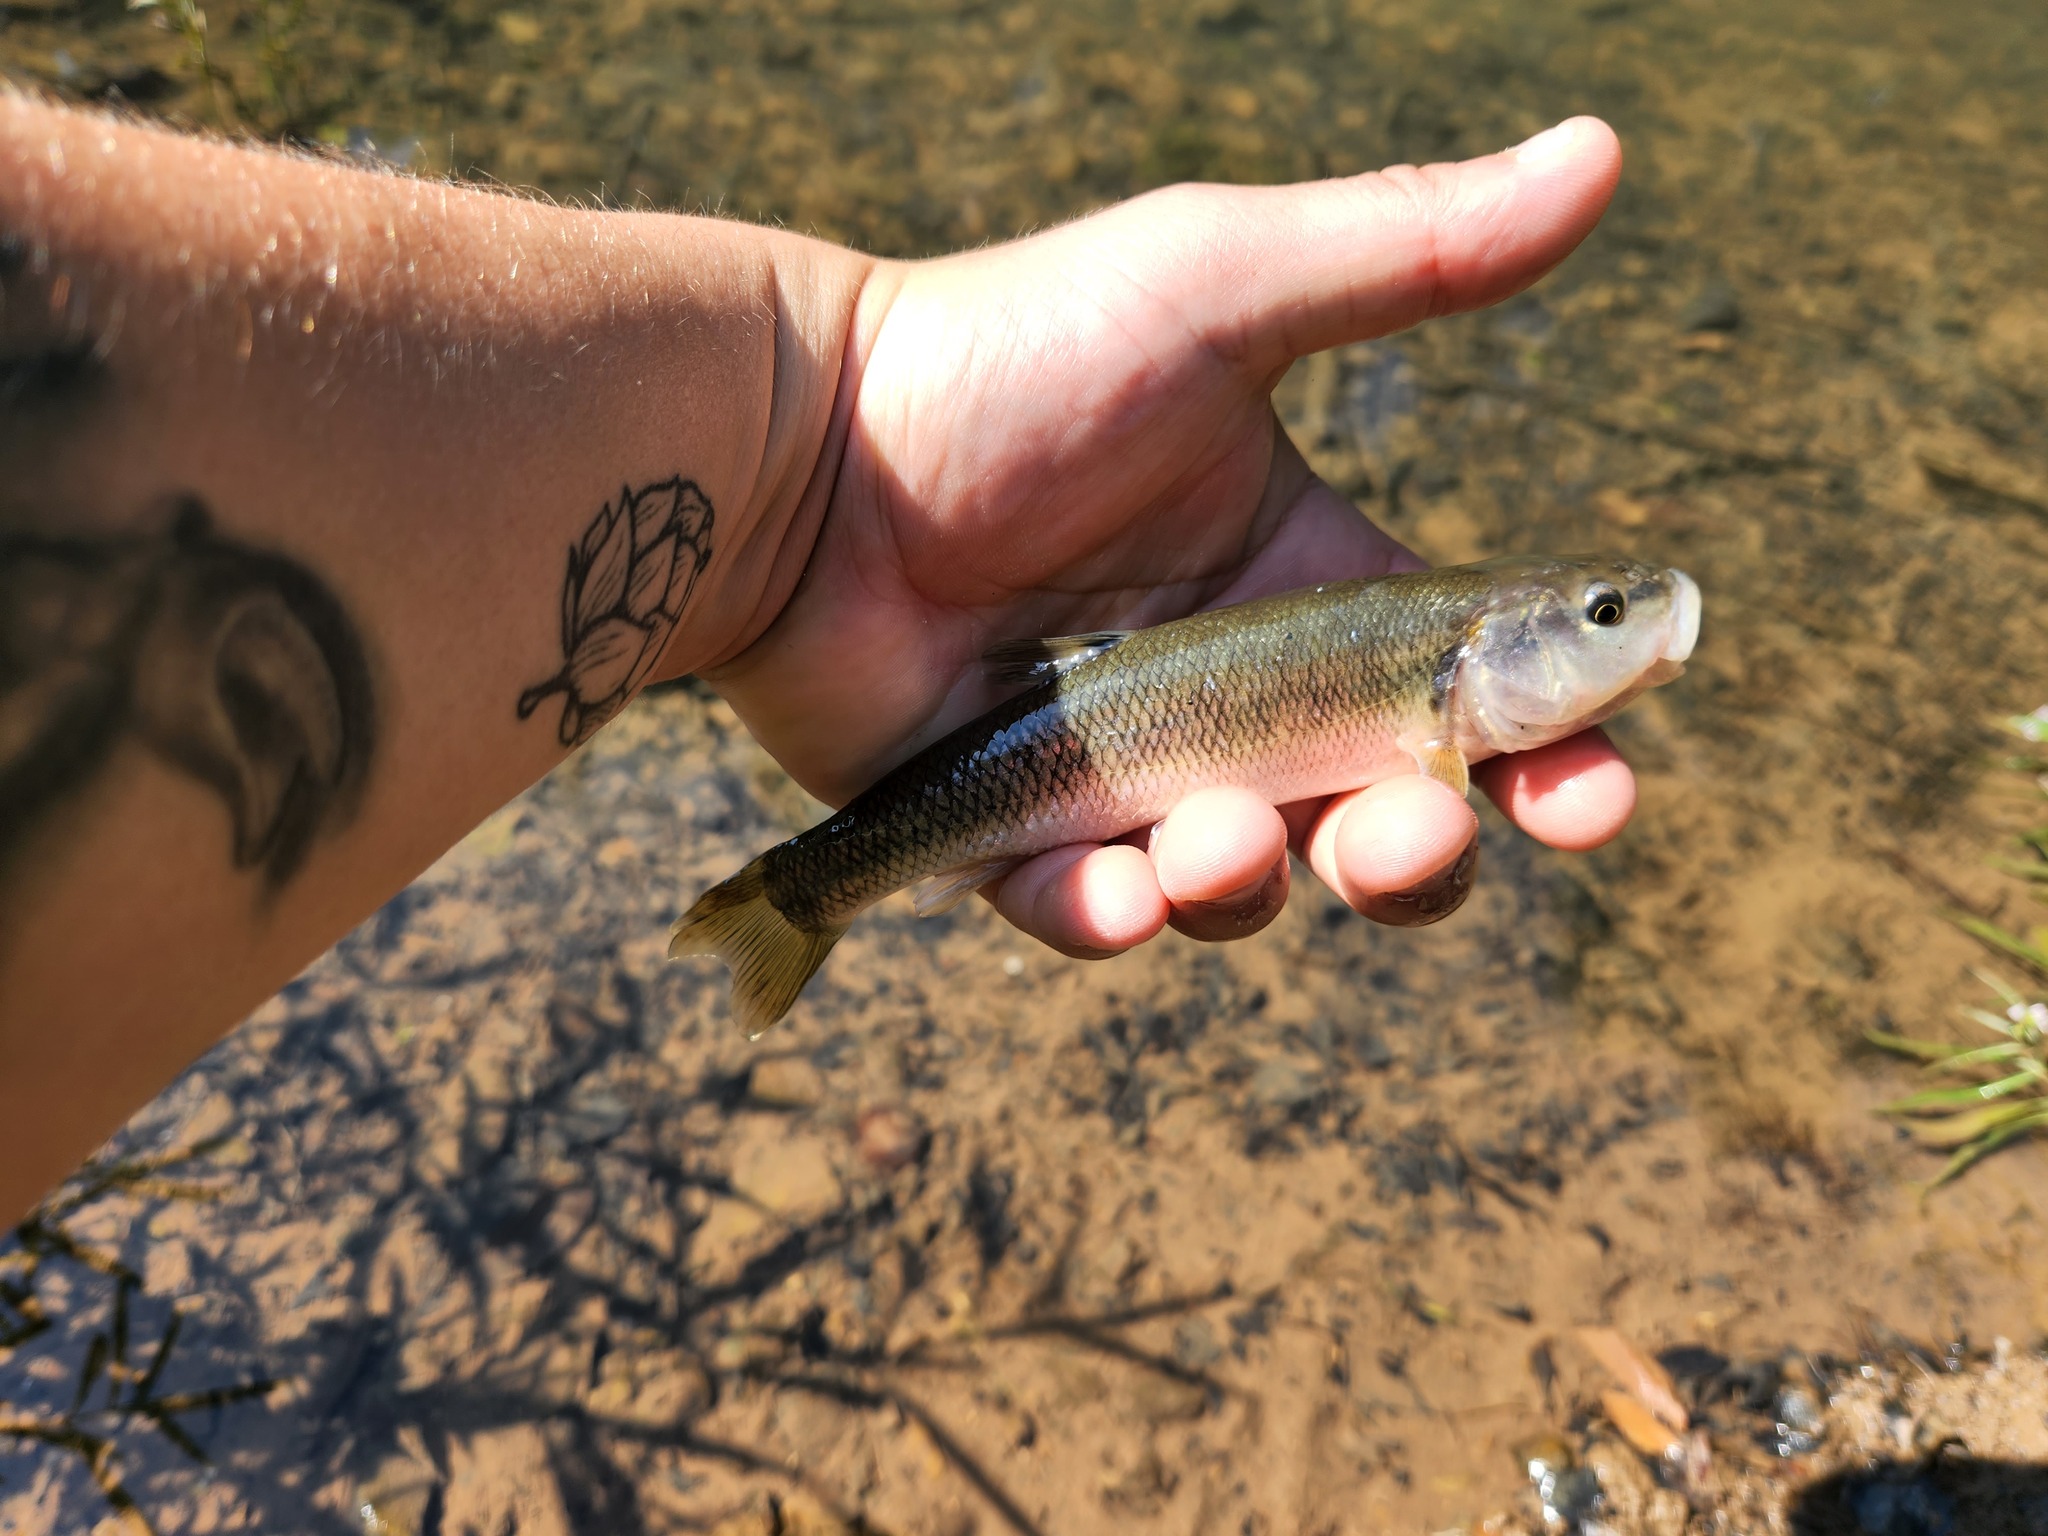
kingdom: Animalia
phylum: Chordata
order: Cypriniformes
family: Cyprinidae
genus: Semotilus
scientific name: Semotilus atromaculatus
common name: Creek chub
